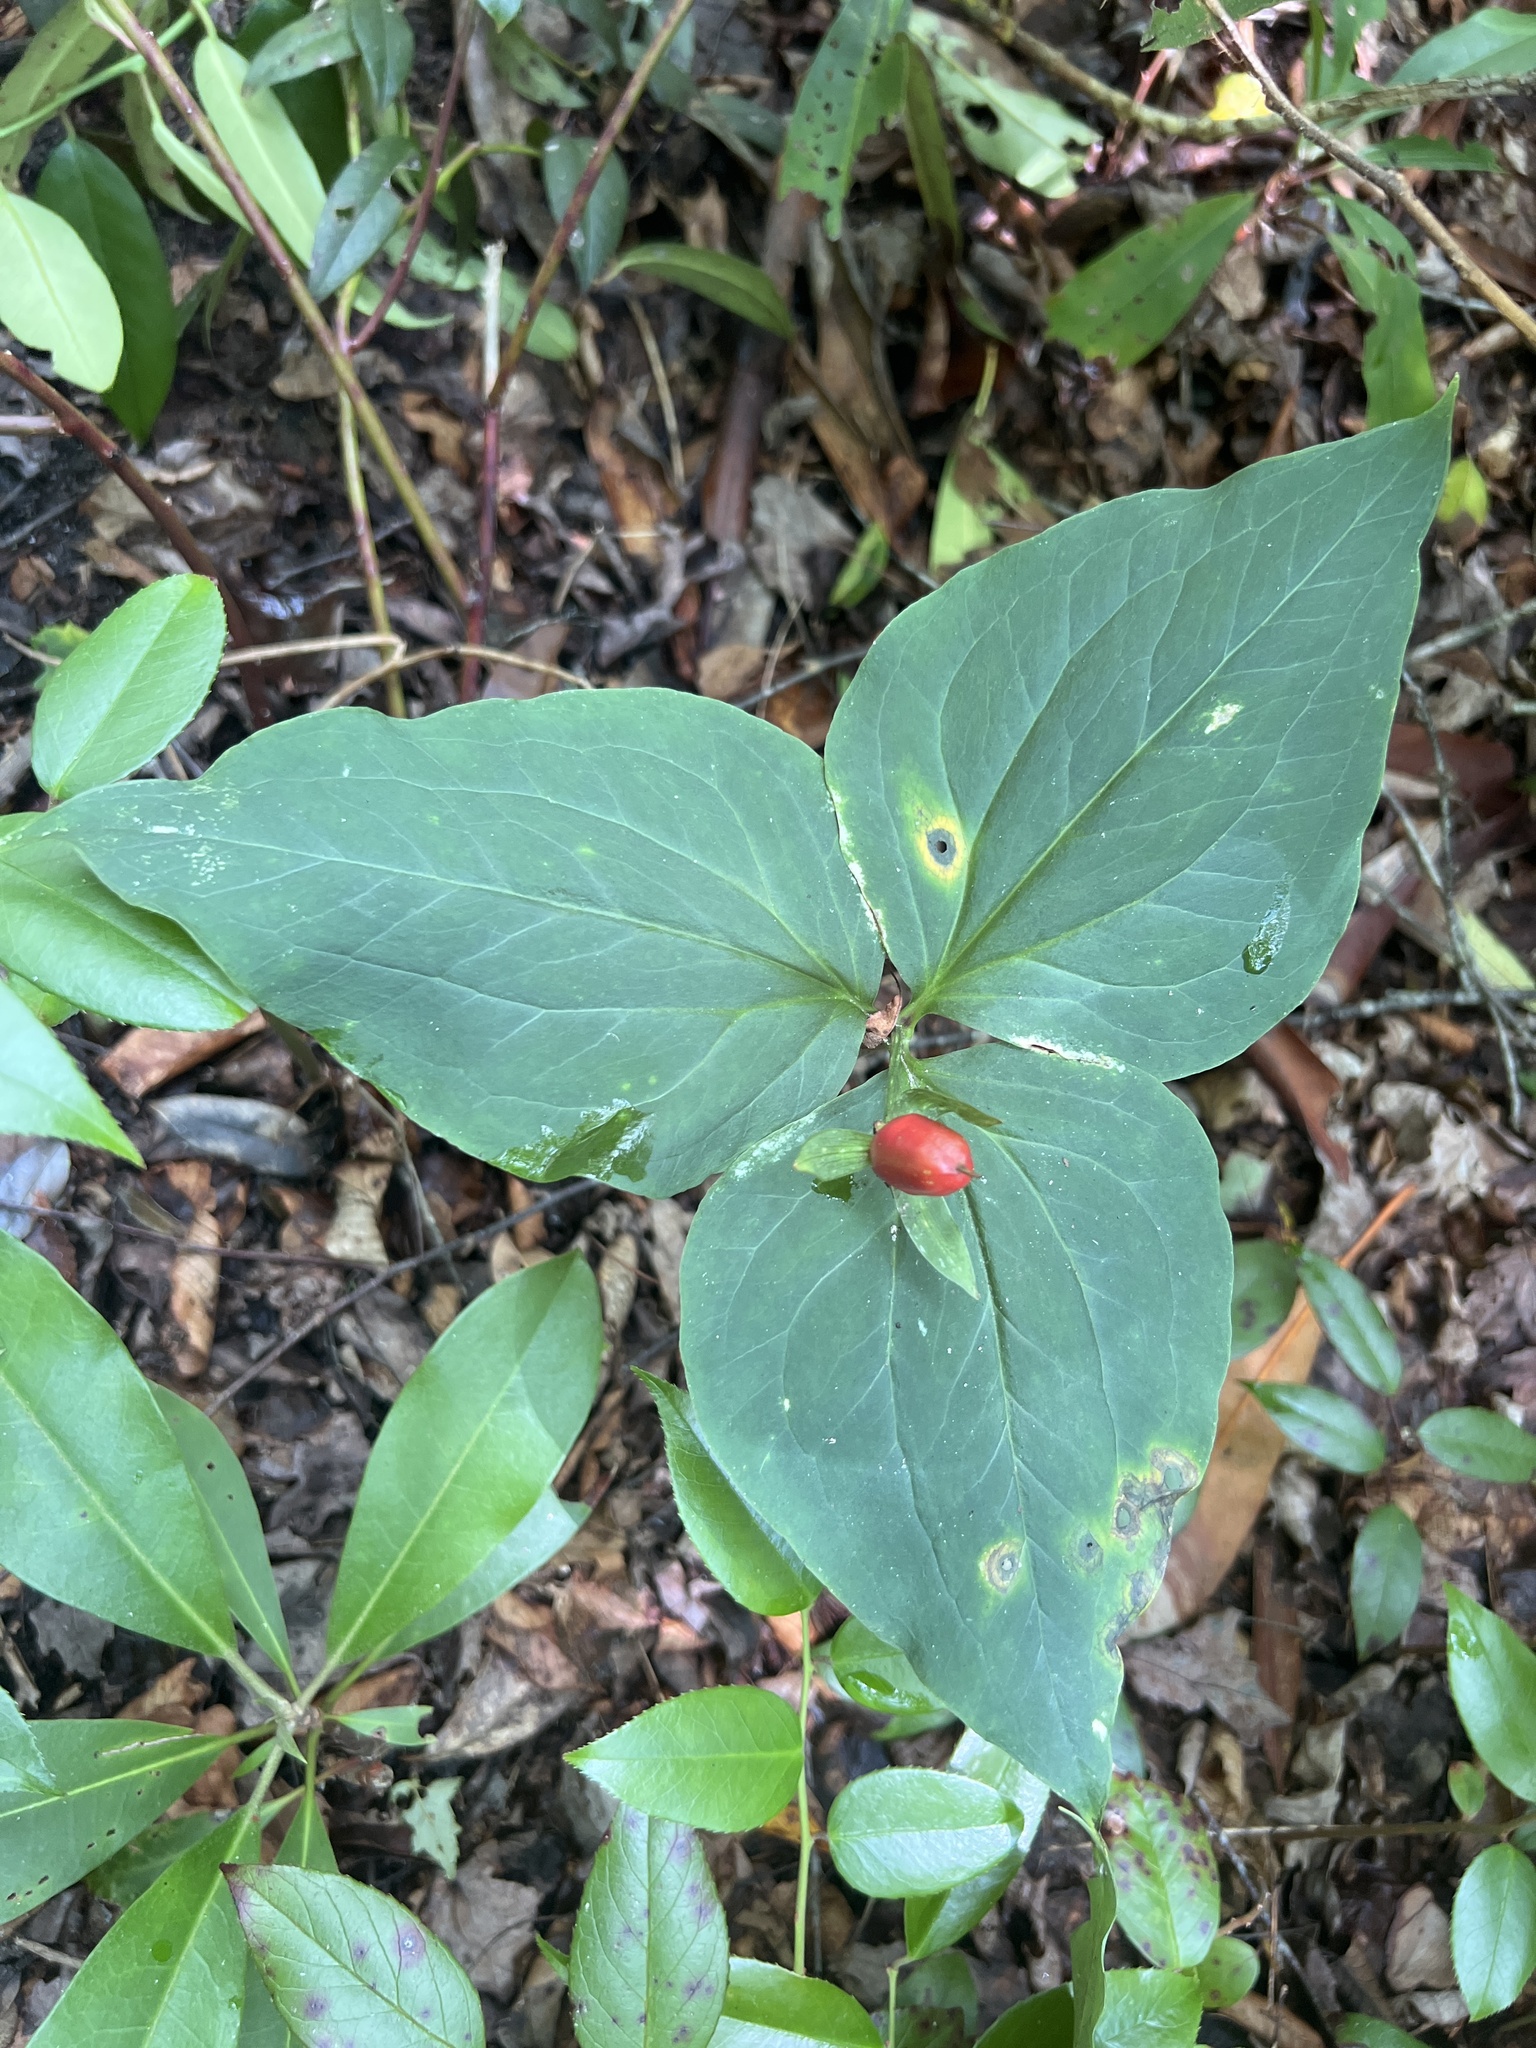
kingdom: Plantae
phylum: Tracheophyta
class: Liliopsida
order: Liliales
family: Melanthiaceae
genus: Trillium
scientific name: Trillium undulatum
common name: Paint trillium
